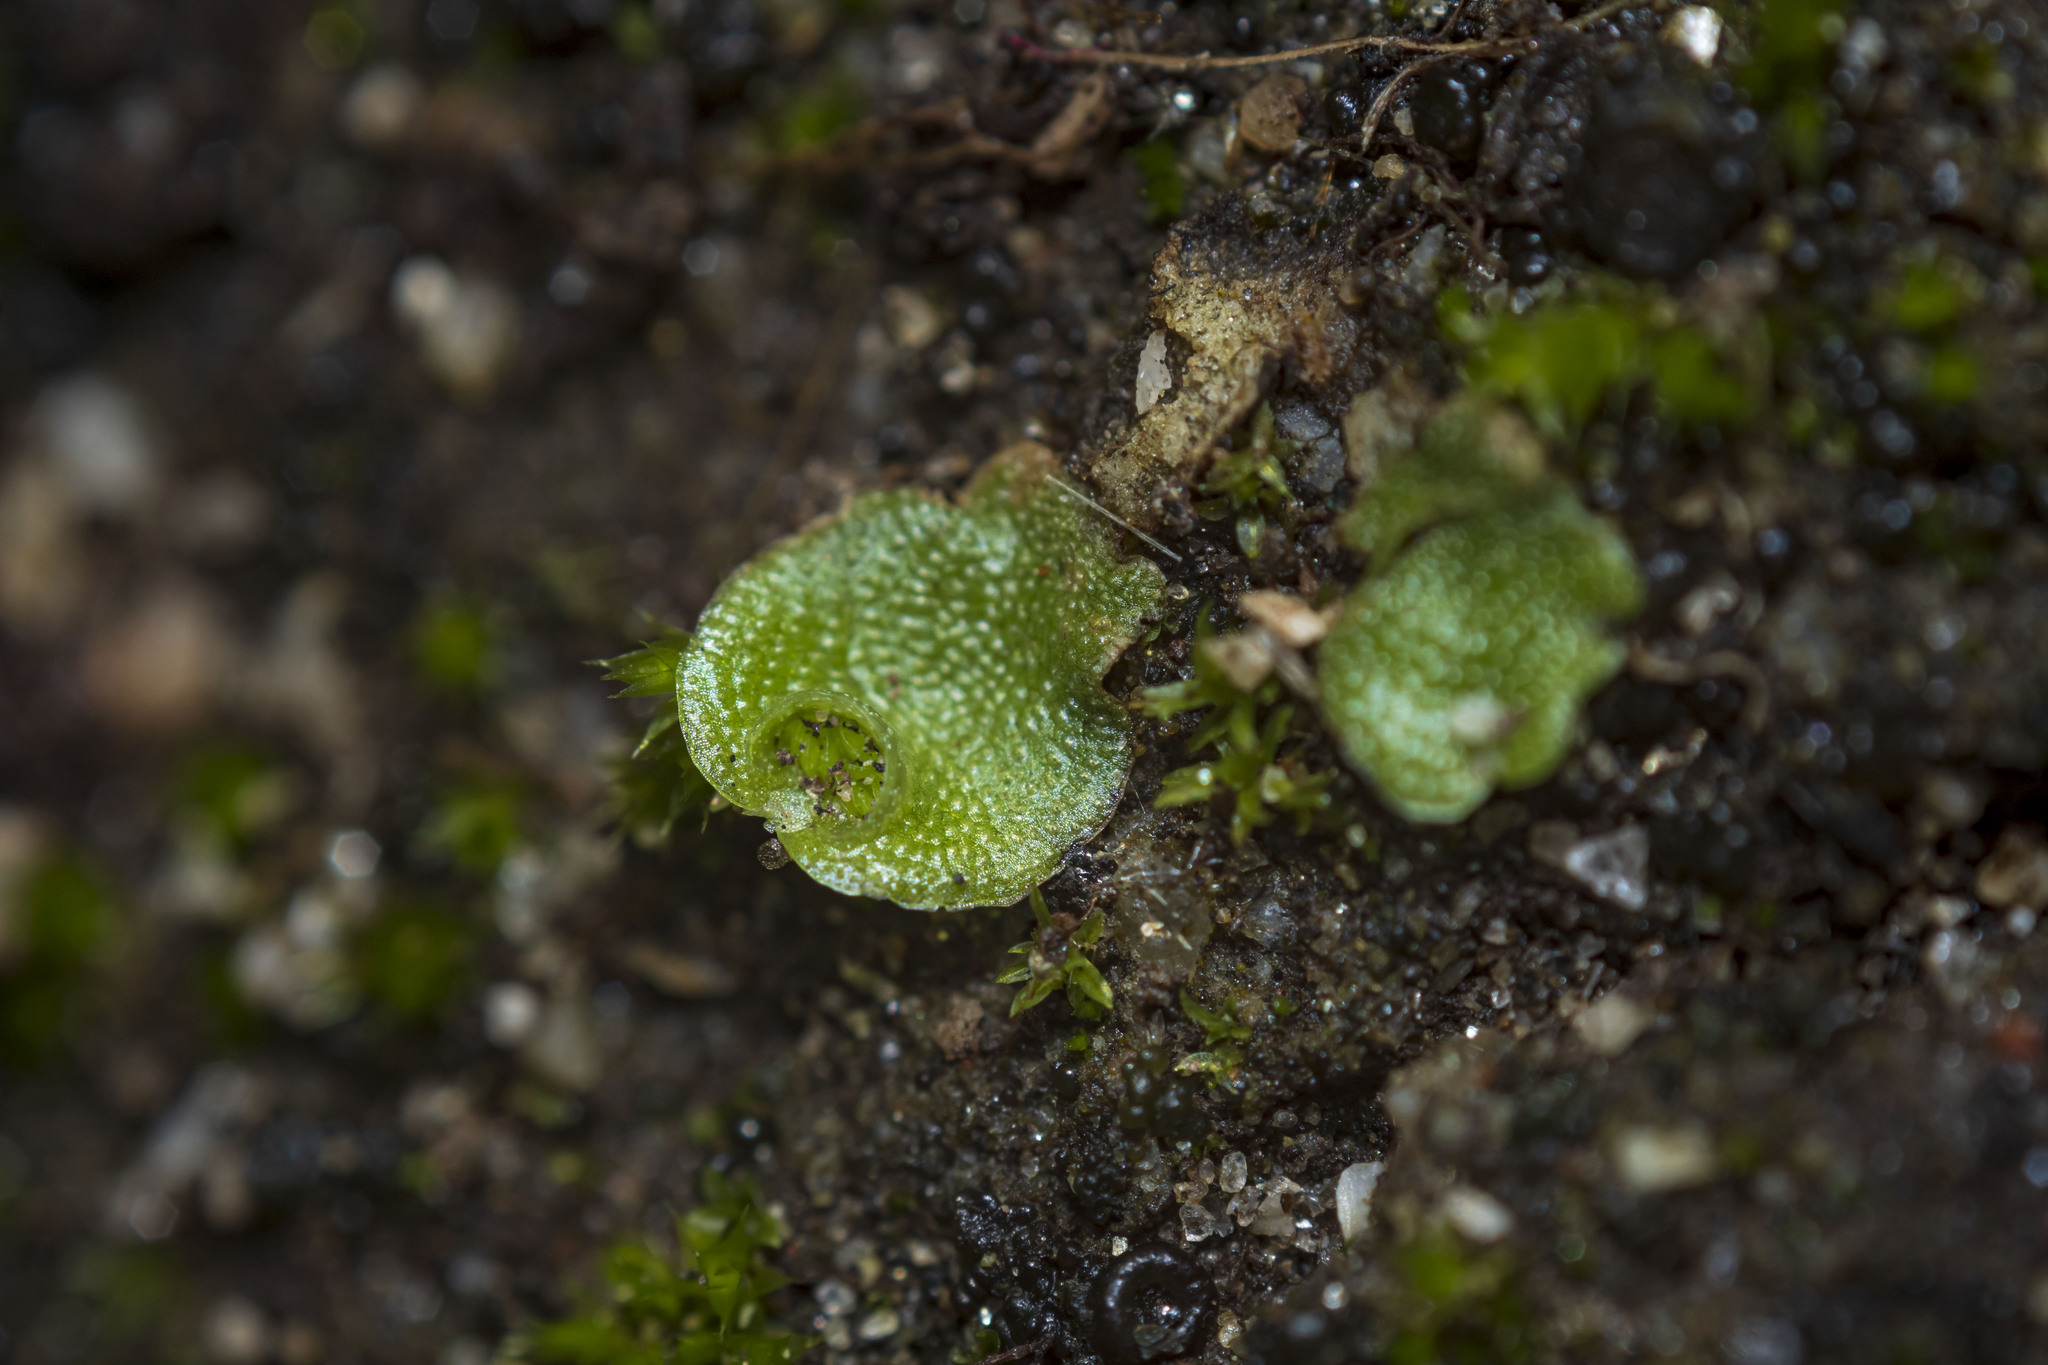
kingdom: Plantae
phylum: Marchantiophyta
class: Marchantiopsida
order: Lunulariales
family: Lunulariaceae
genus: Lunularia
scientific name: Lunularia cruciata
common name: Crescent-cup liverwort
